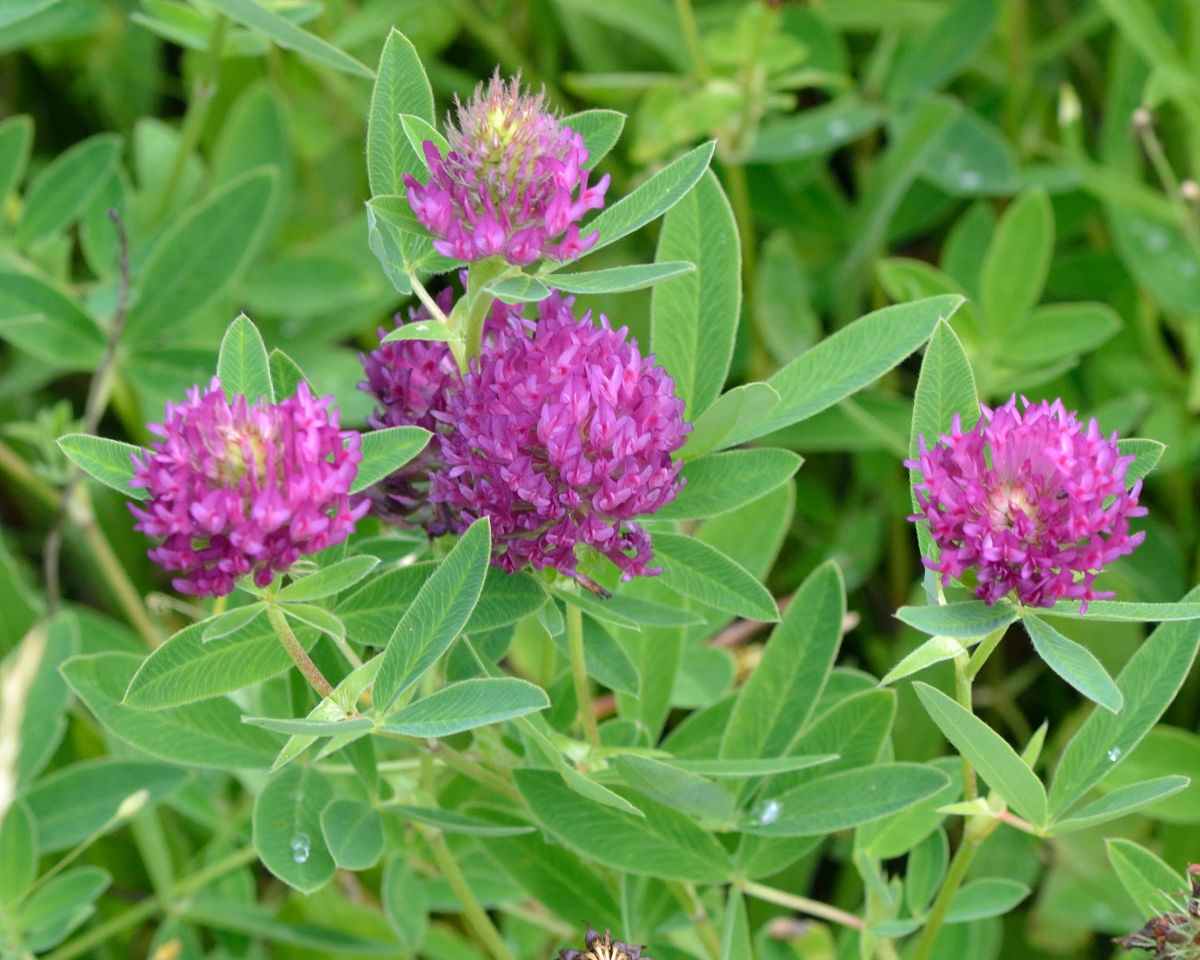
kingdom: Plantae
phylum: Tracheophyta
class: Magnoliopsida
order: Fabales
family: Fabaceae
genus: Trifolium
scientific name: Trifolium medium
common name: Zigzag clover
